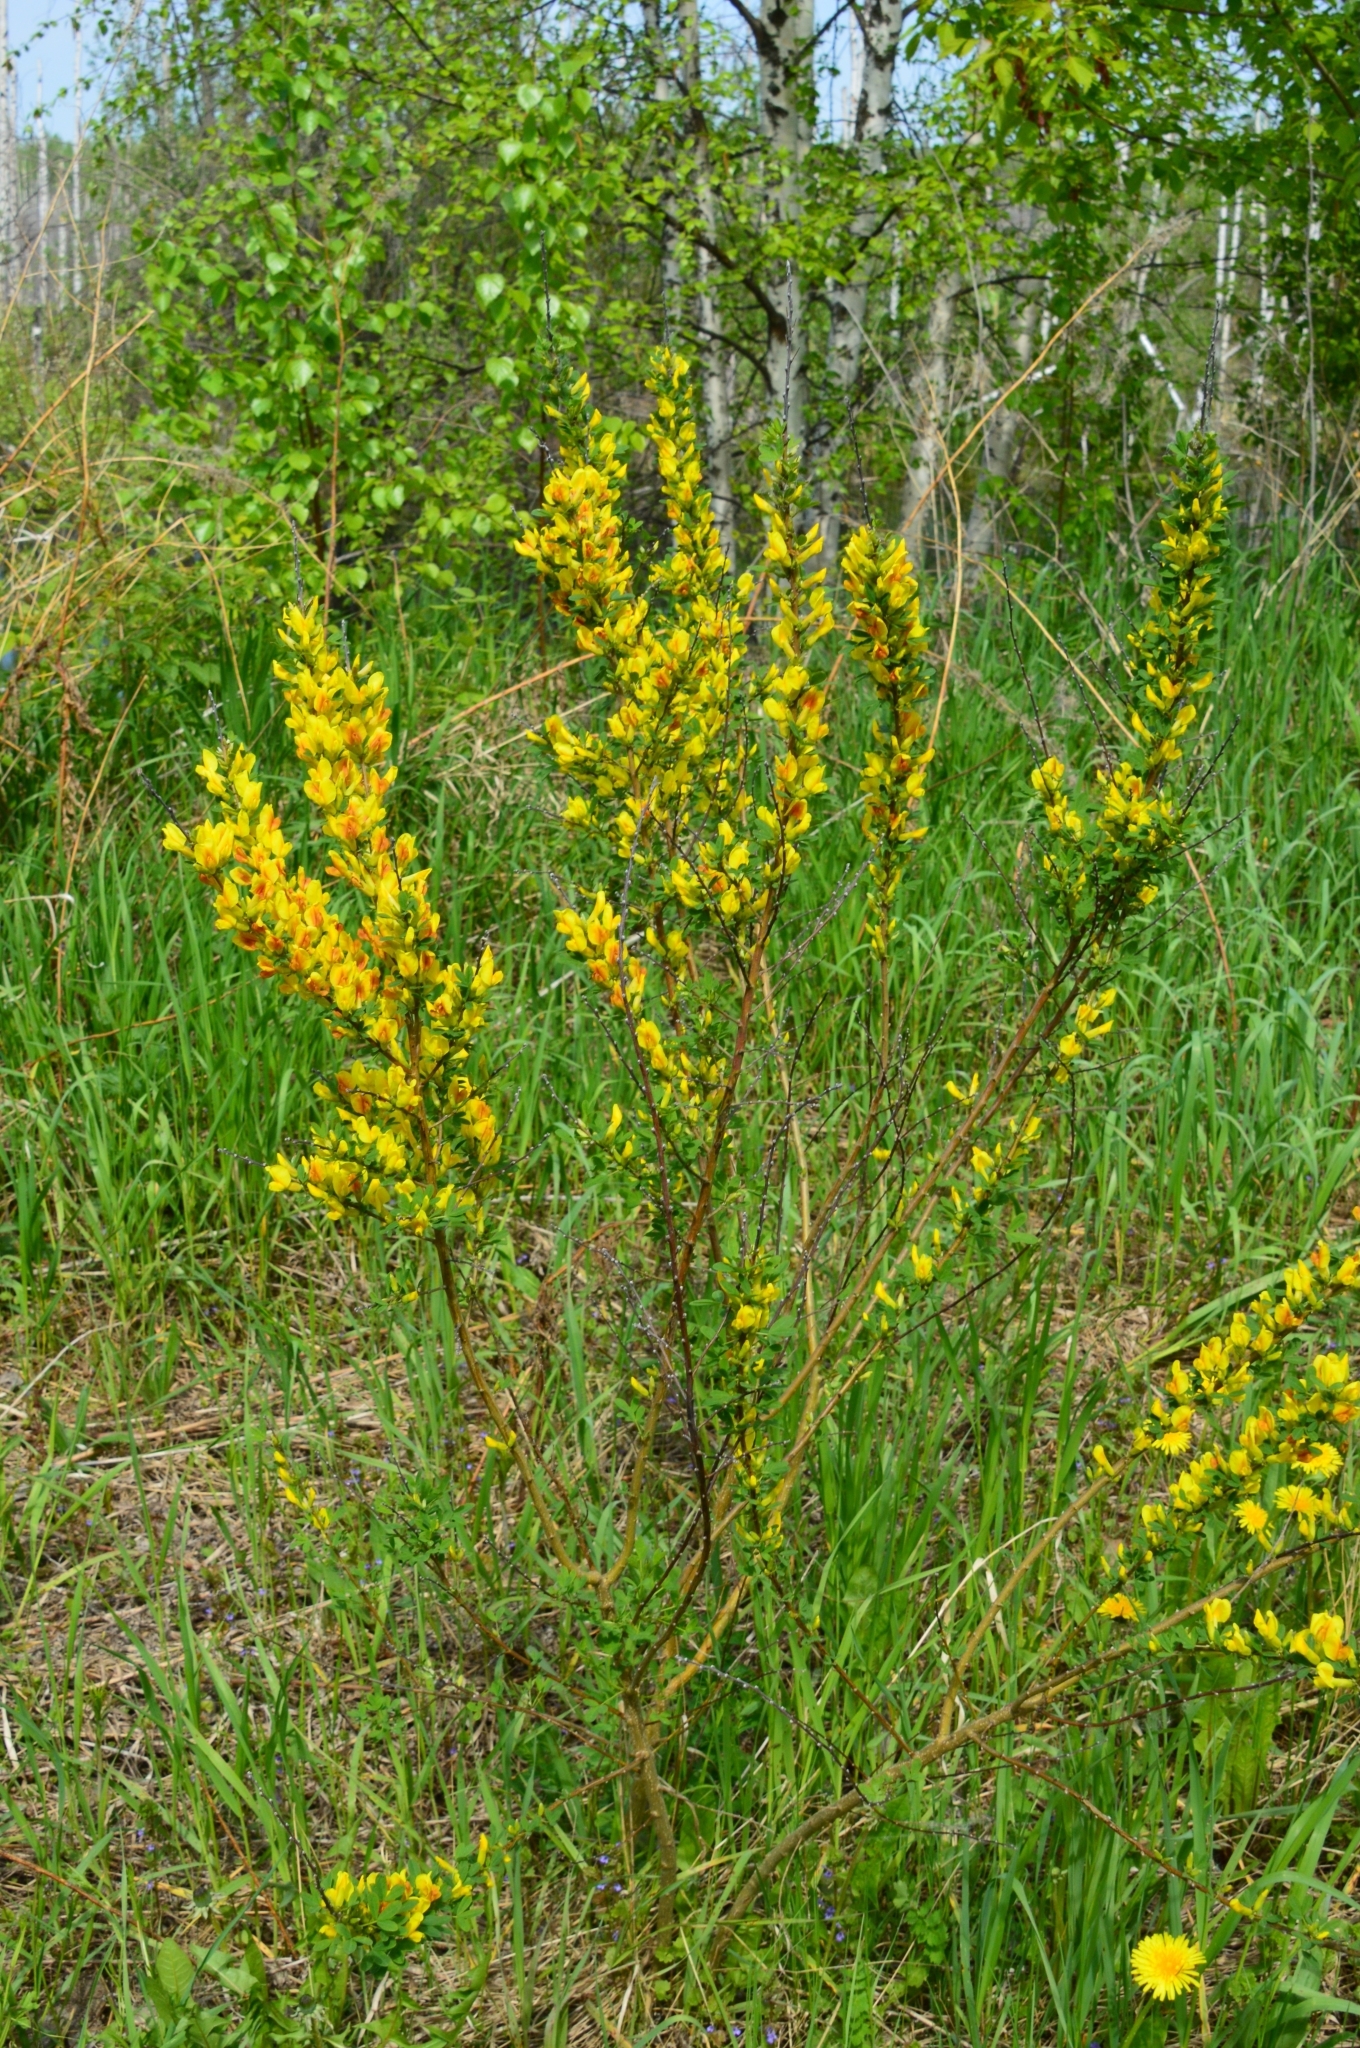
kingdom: Plantae
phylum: Tracheophyta
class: Magnoliopsida
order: Fabales
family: Fabaceae
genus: Chamaecytisus
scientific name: Chamaecytisus ruthenicus
